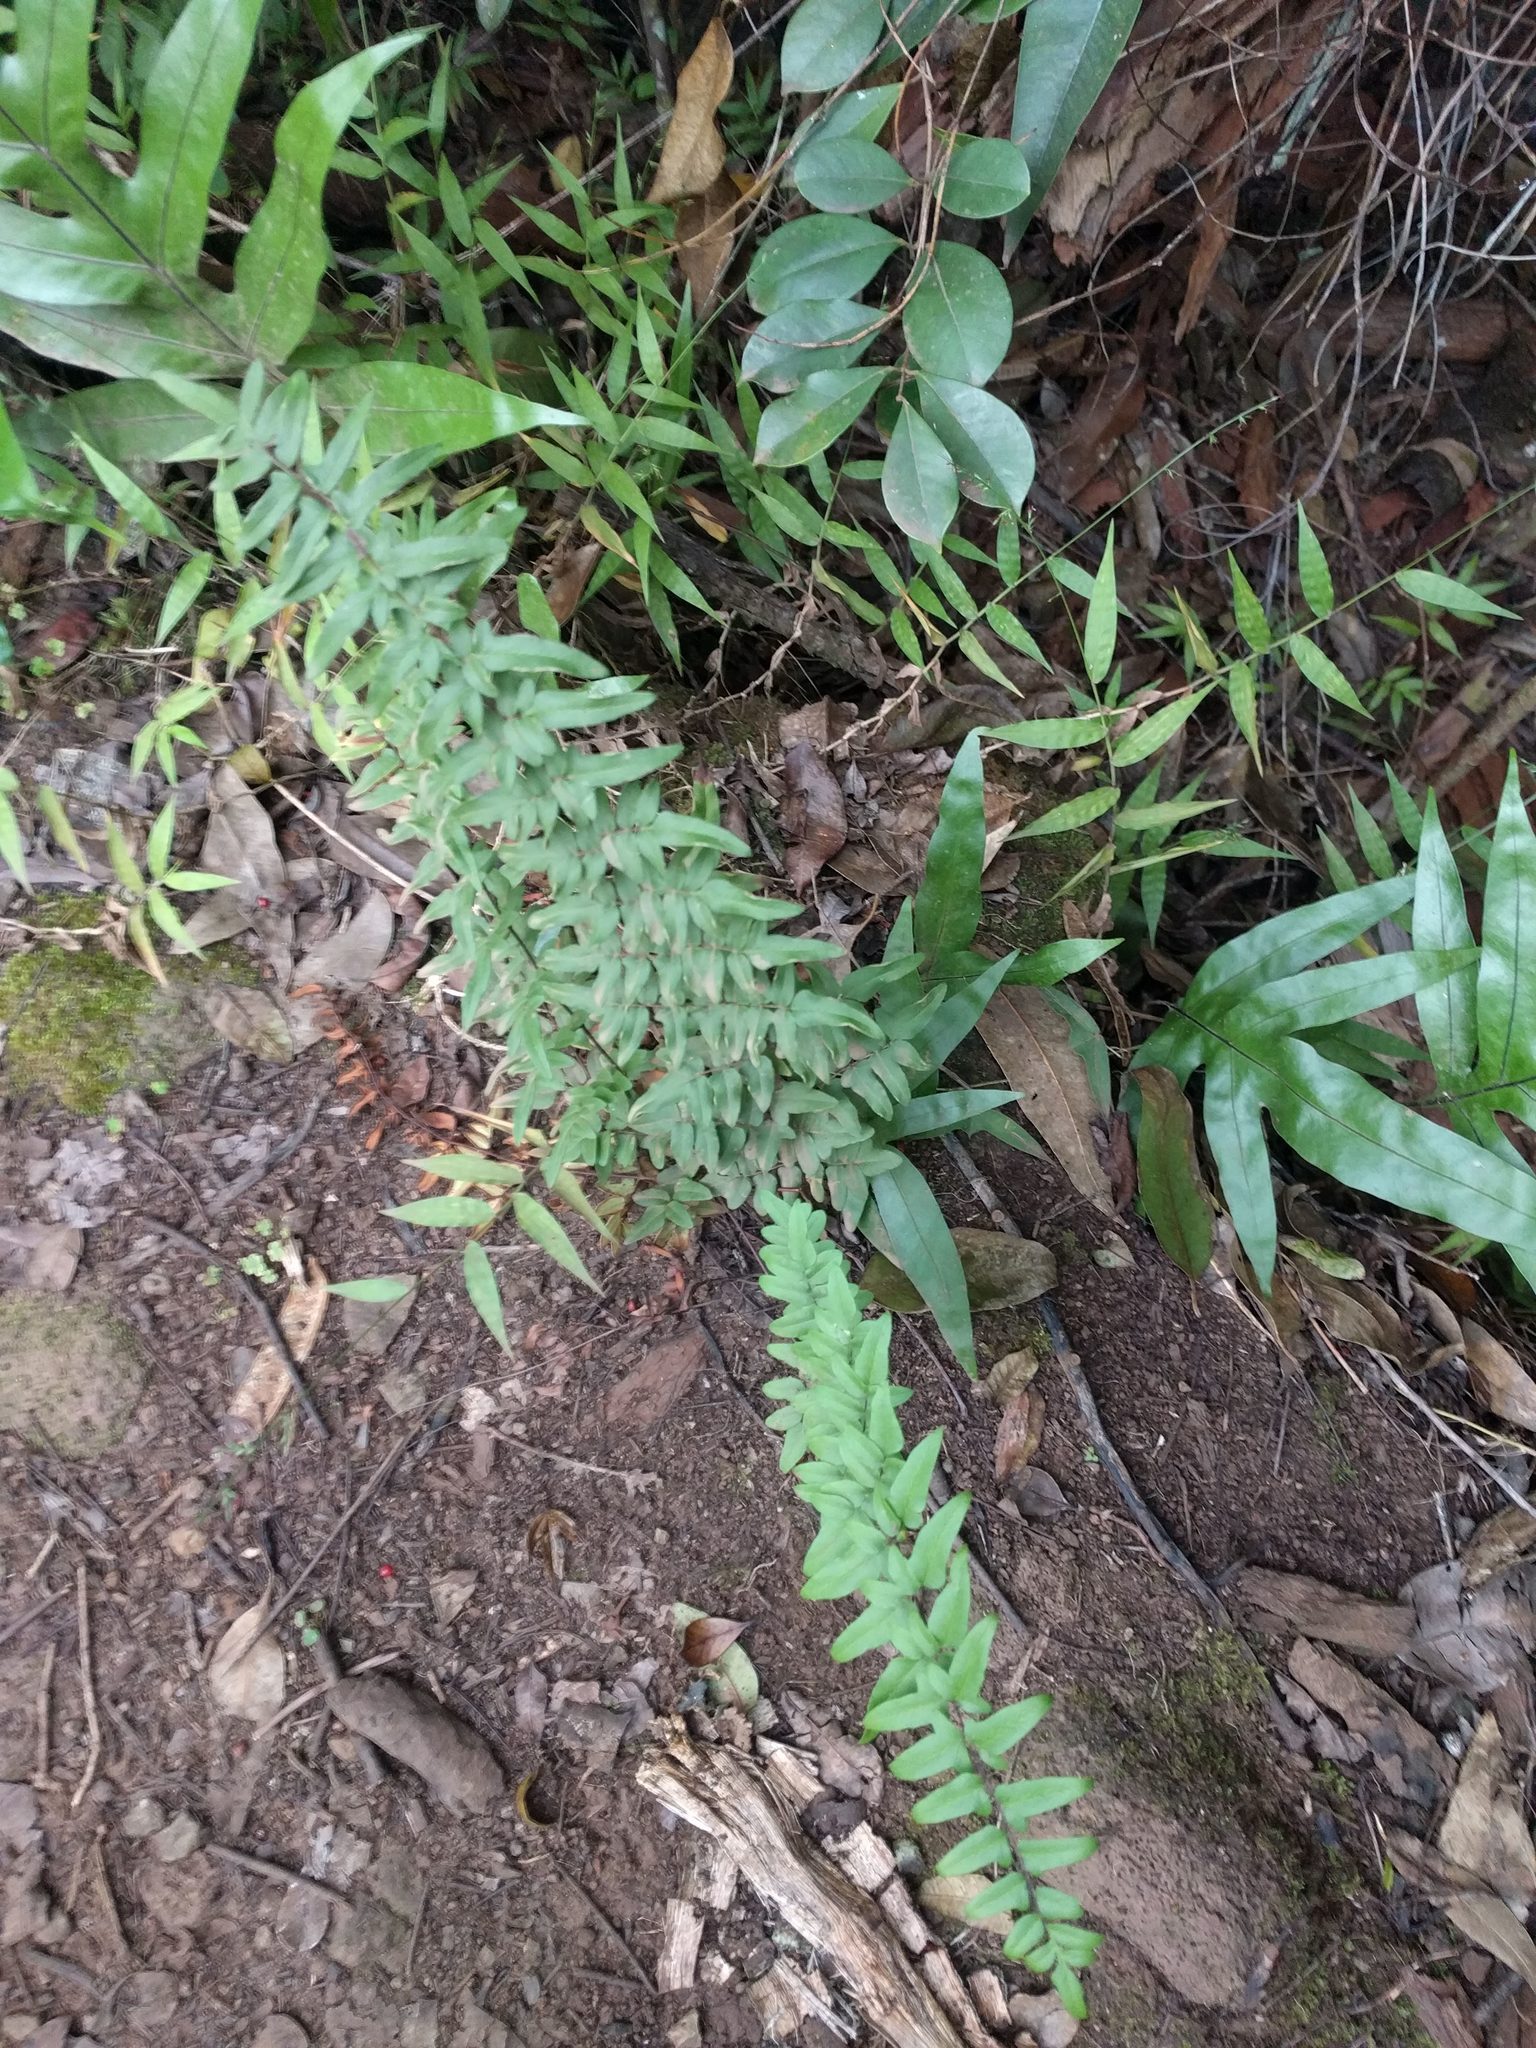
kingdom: Plantae
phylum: Tracheophyta
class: Polypodiopsida
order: Polypodiales
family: Pteridaceae
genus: Cheilanthes
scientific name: Cheilanthes viridis
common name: Green cliffbrake
